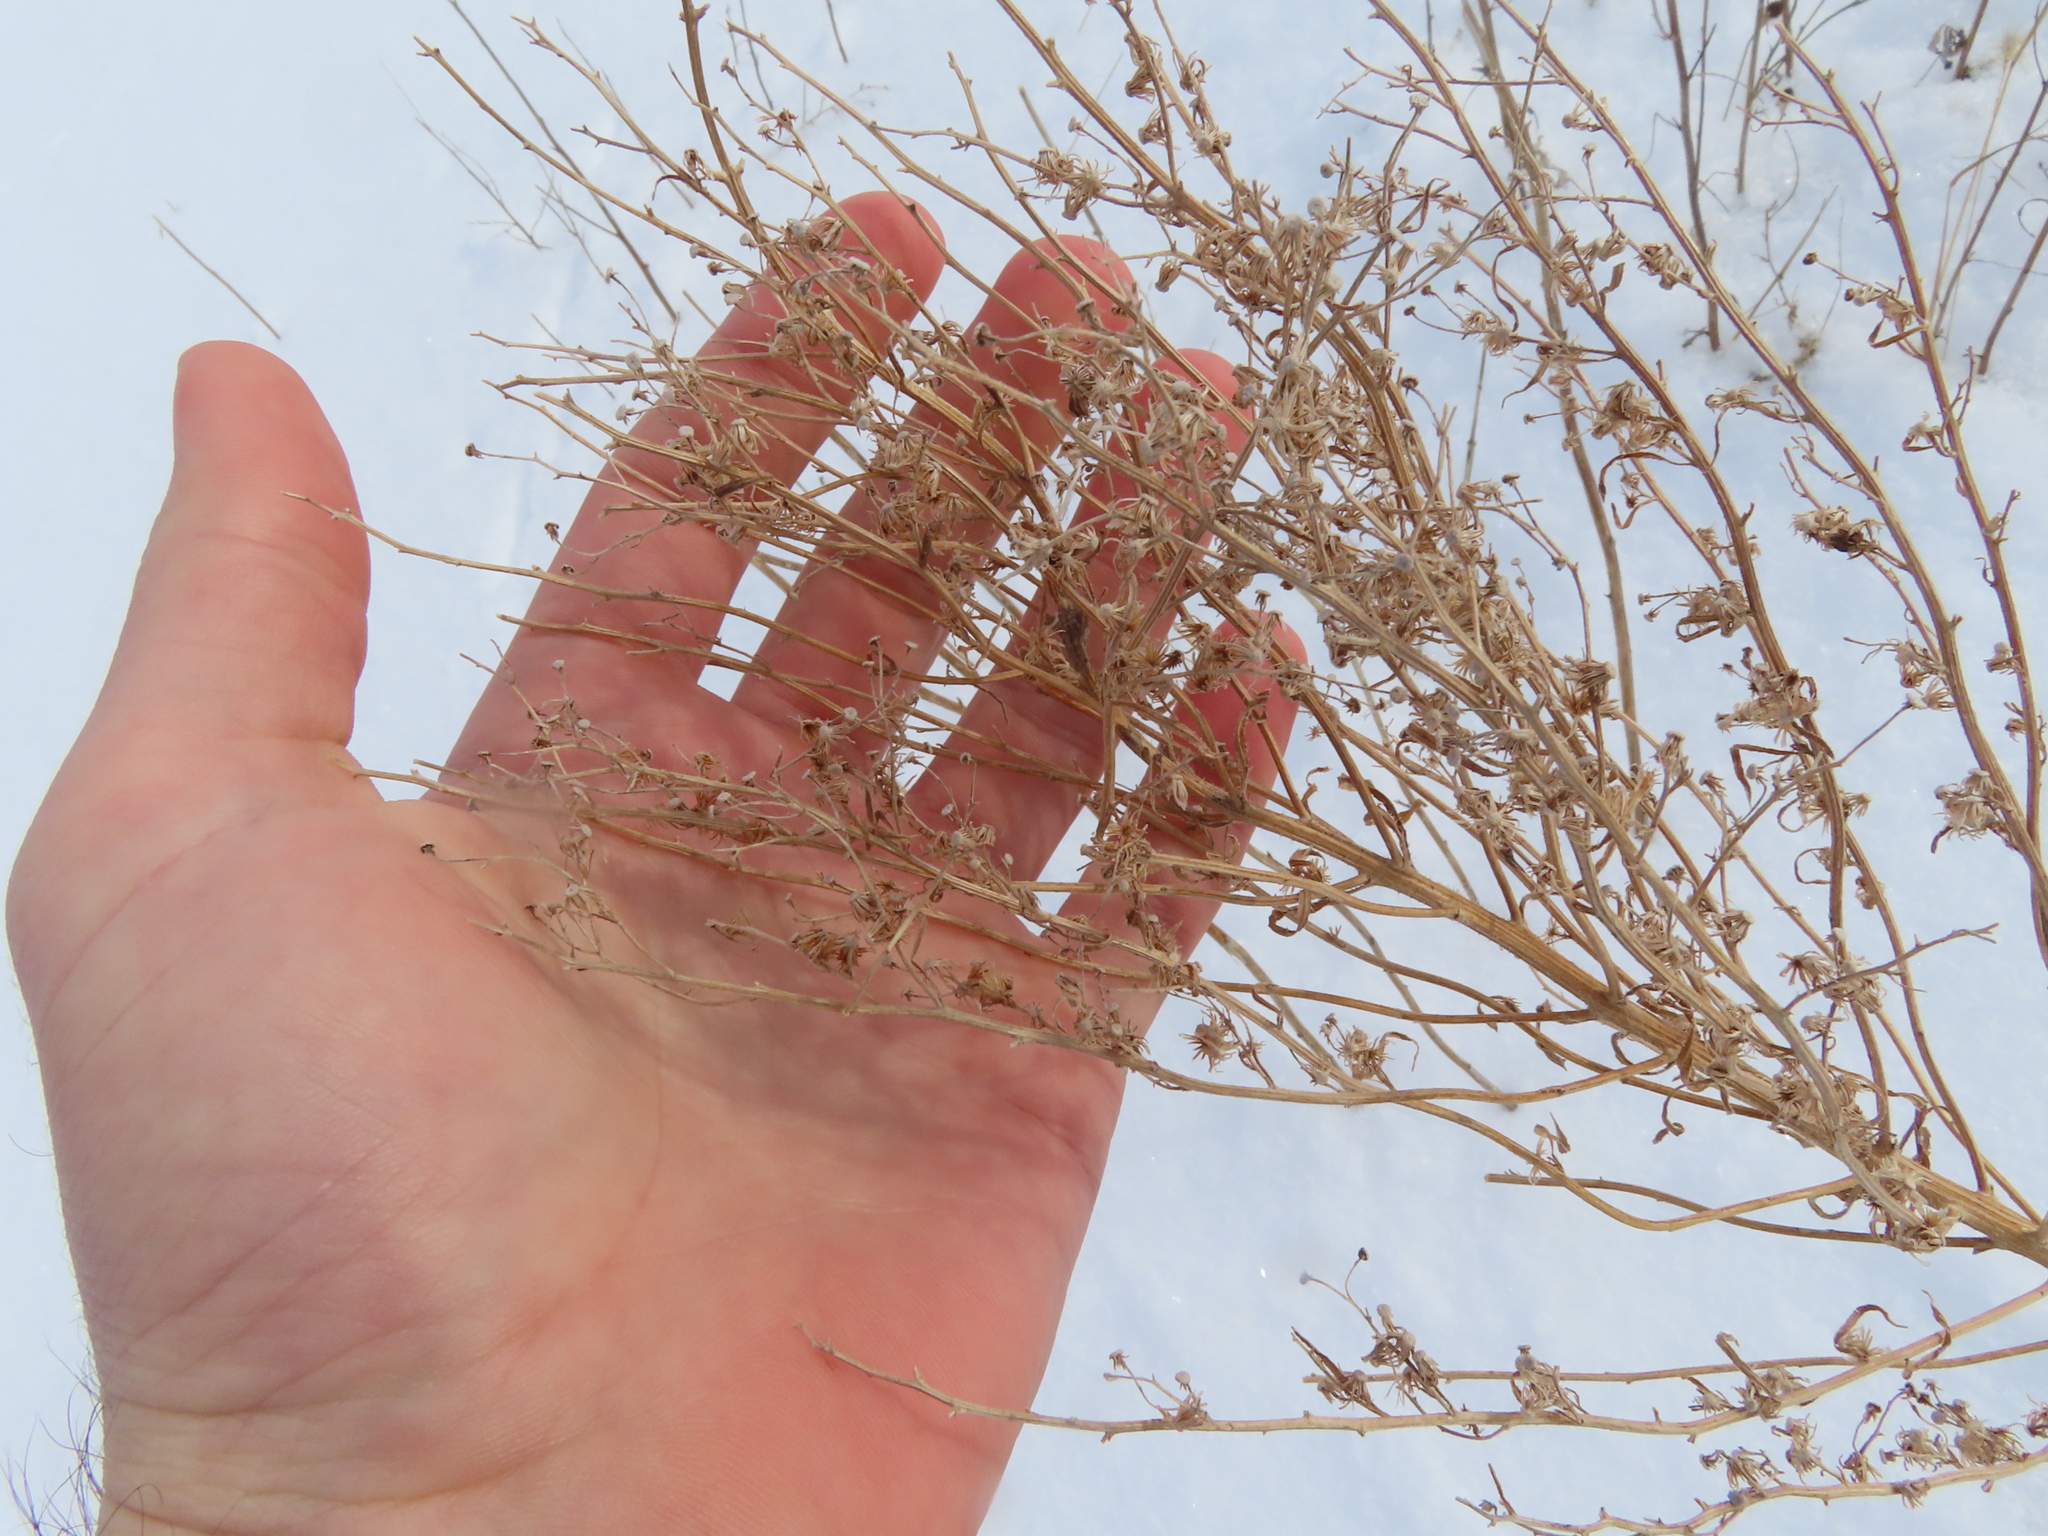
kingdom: Plantae
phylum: Tracheophyta
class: Magnoliopsida
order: Asterales
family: Asteraceae
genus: Erigeron
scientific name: Erigeron canadensis
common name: Canadian fleabane
